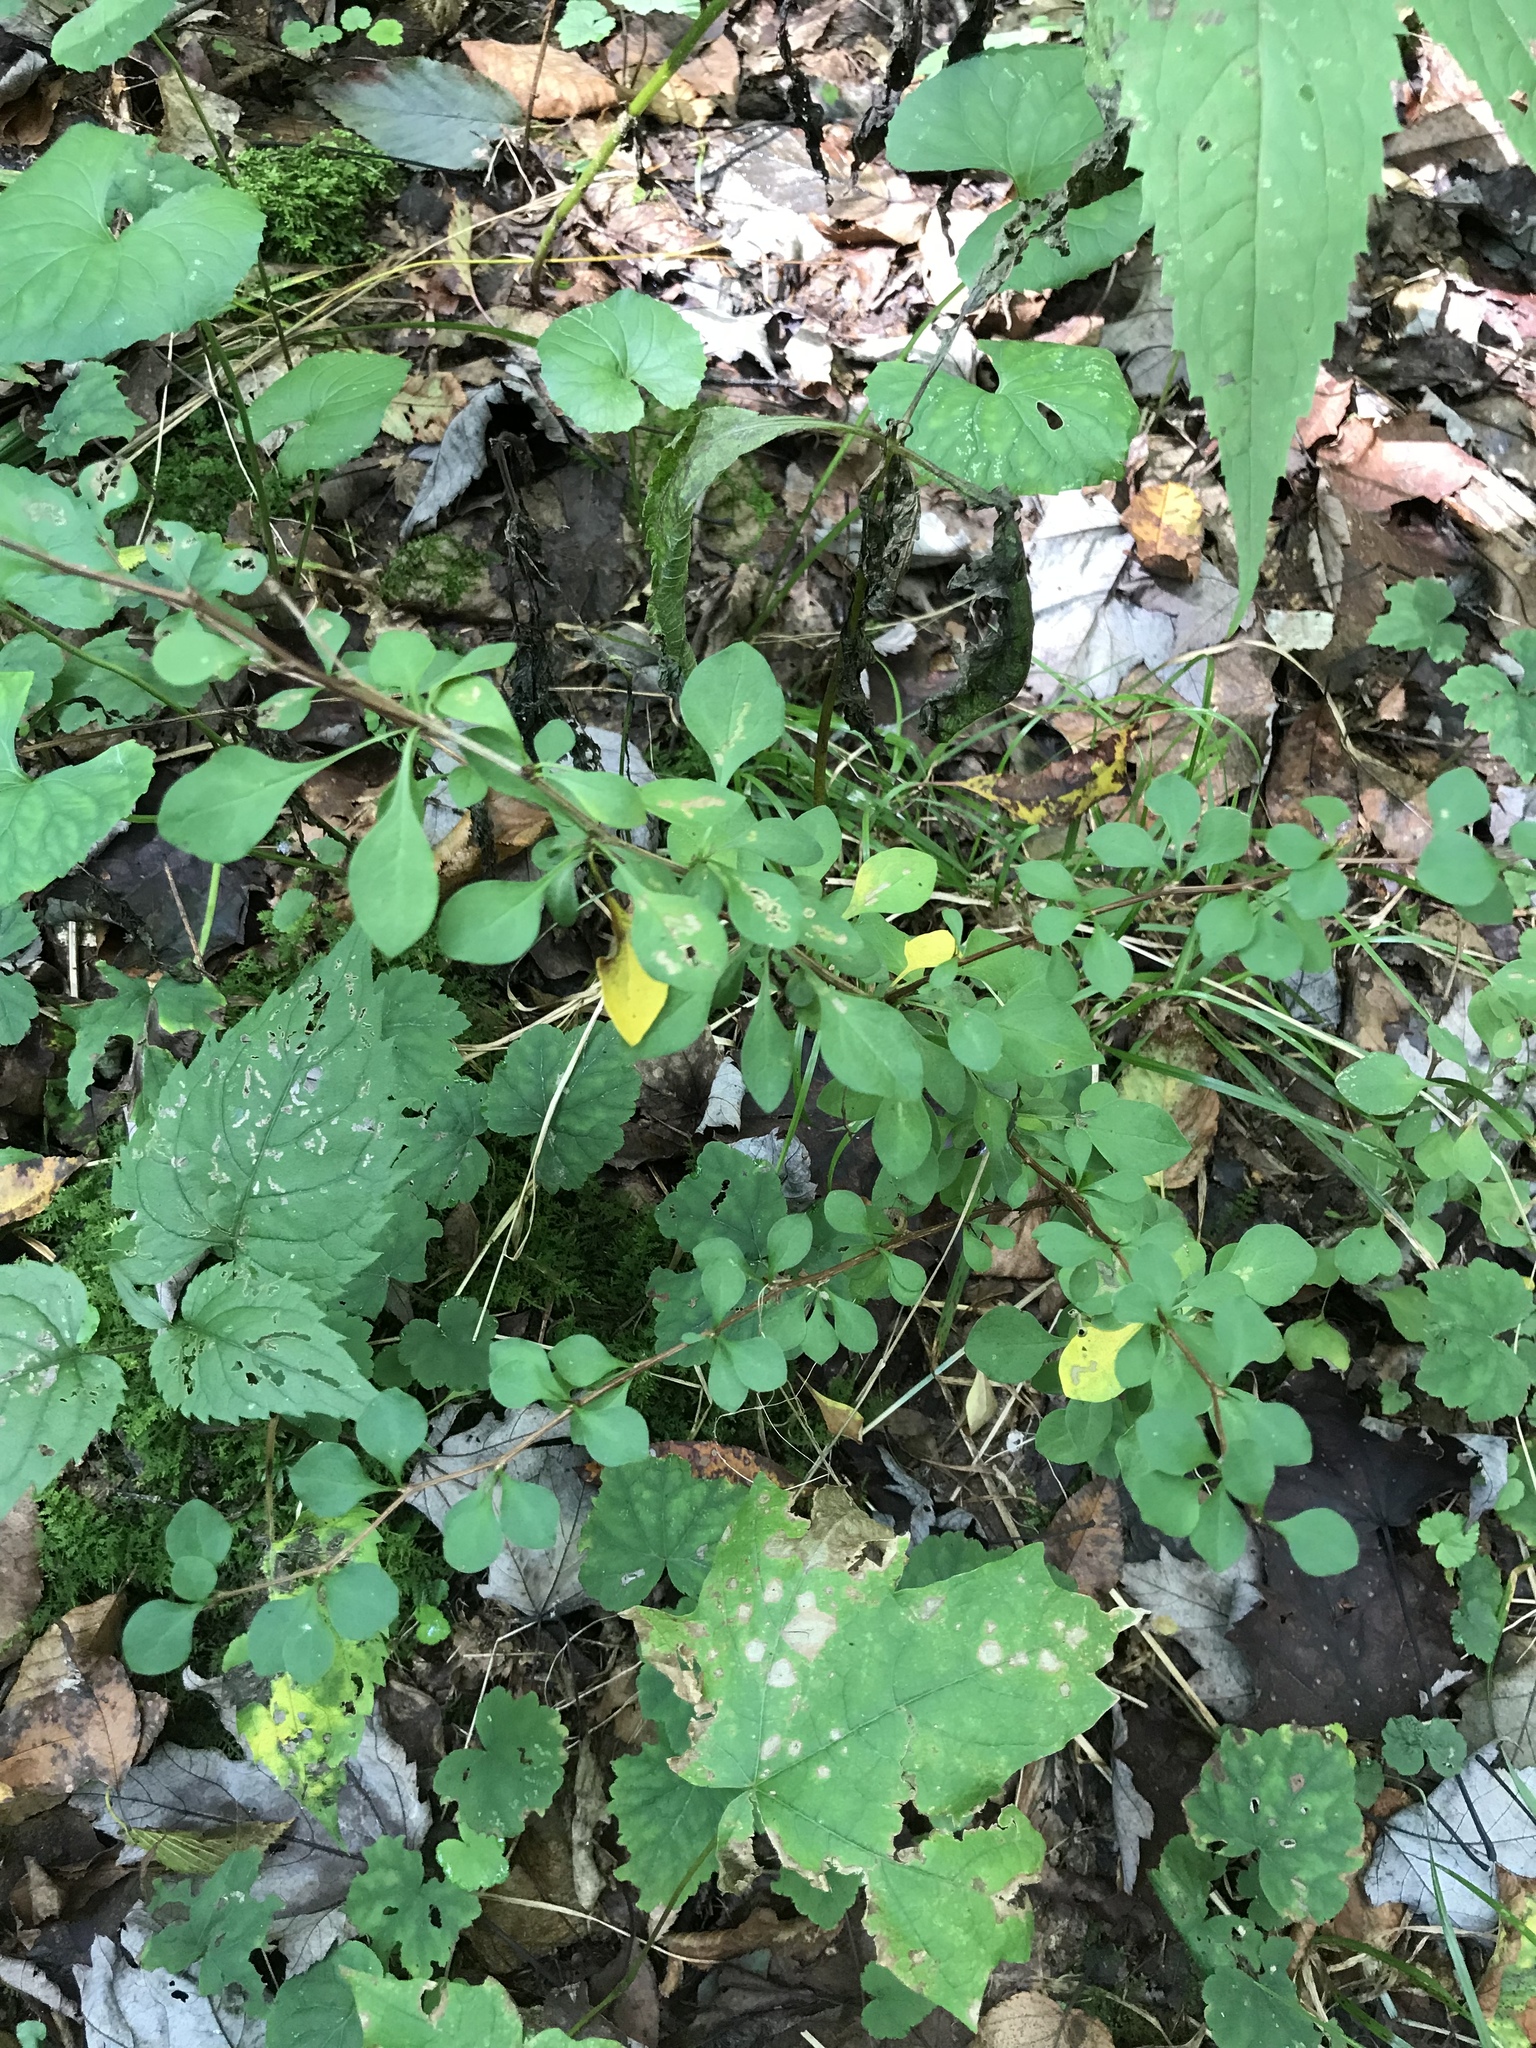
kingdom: Plantae
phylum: Tracheophyta
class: Magnoliopsida
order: Ranunculales
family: Berberidaceae
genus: Berberis
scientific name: Berberis thunbergii
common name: Japanese barberry
